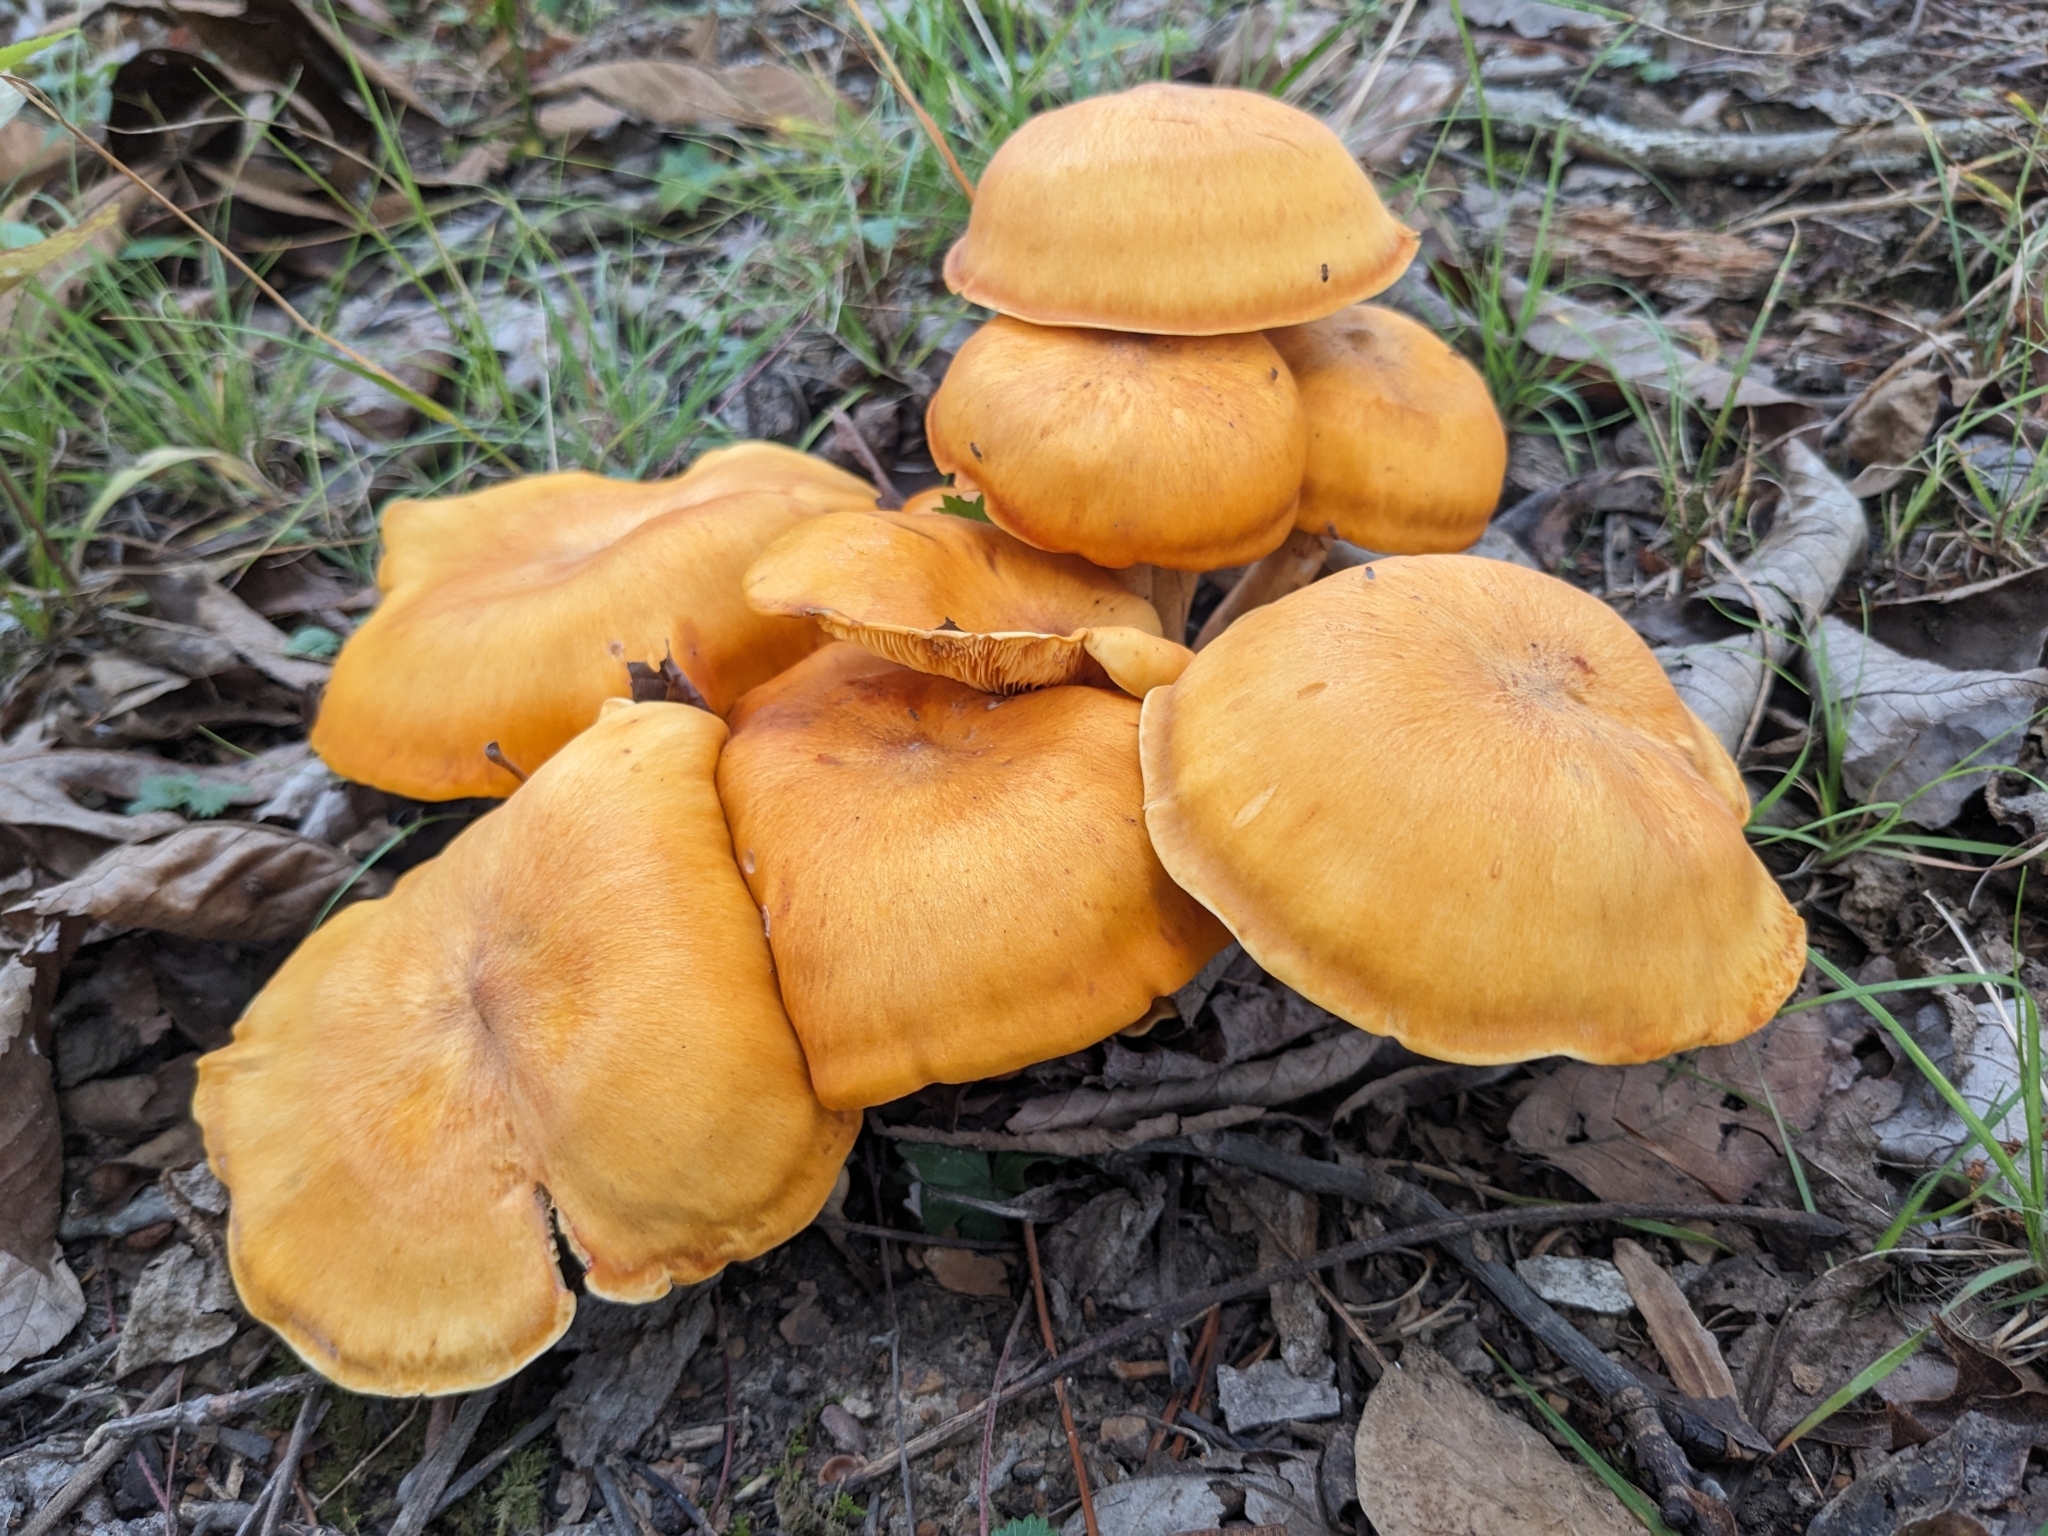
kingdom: Fungi
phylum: Basidiomycota
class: Agaricomycetes
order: Agaricales
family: Omphalotaceae
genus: Omphalotus
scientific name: Omphalotus illudens
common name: Jack o lantern
